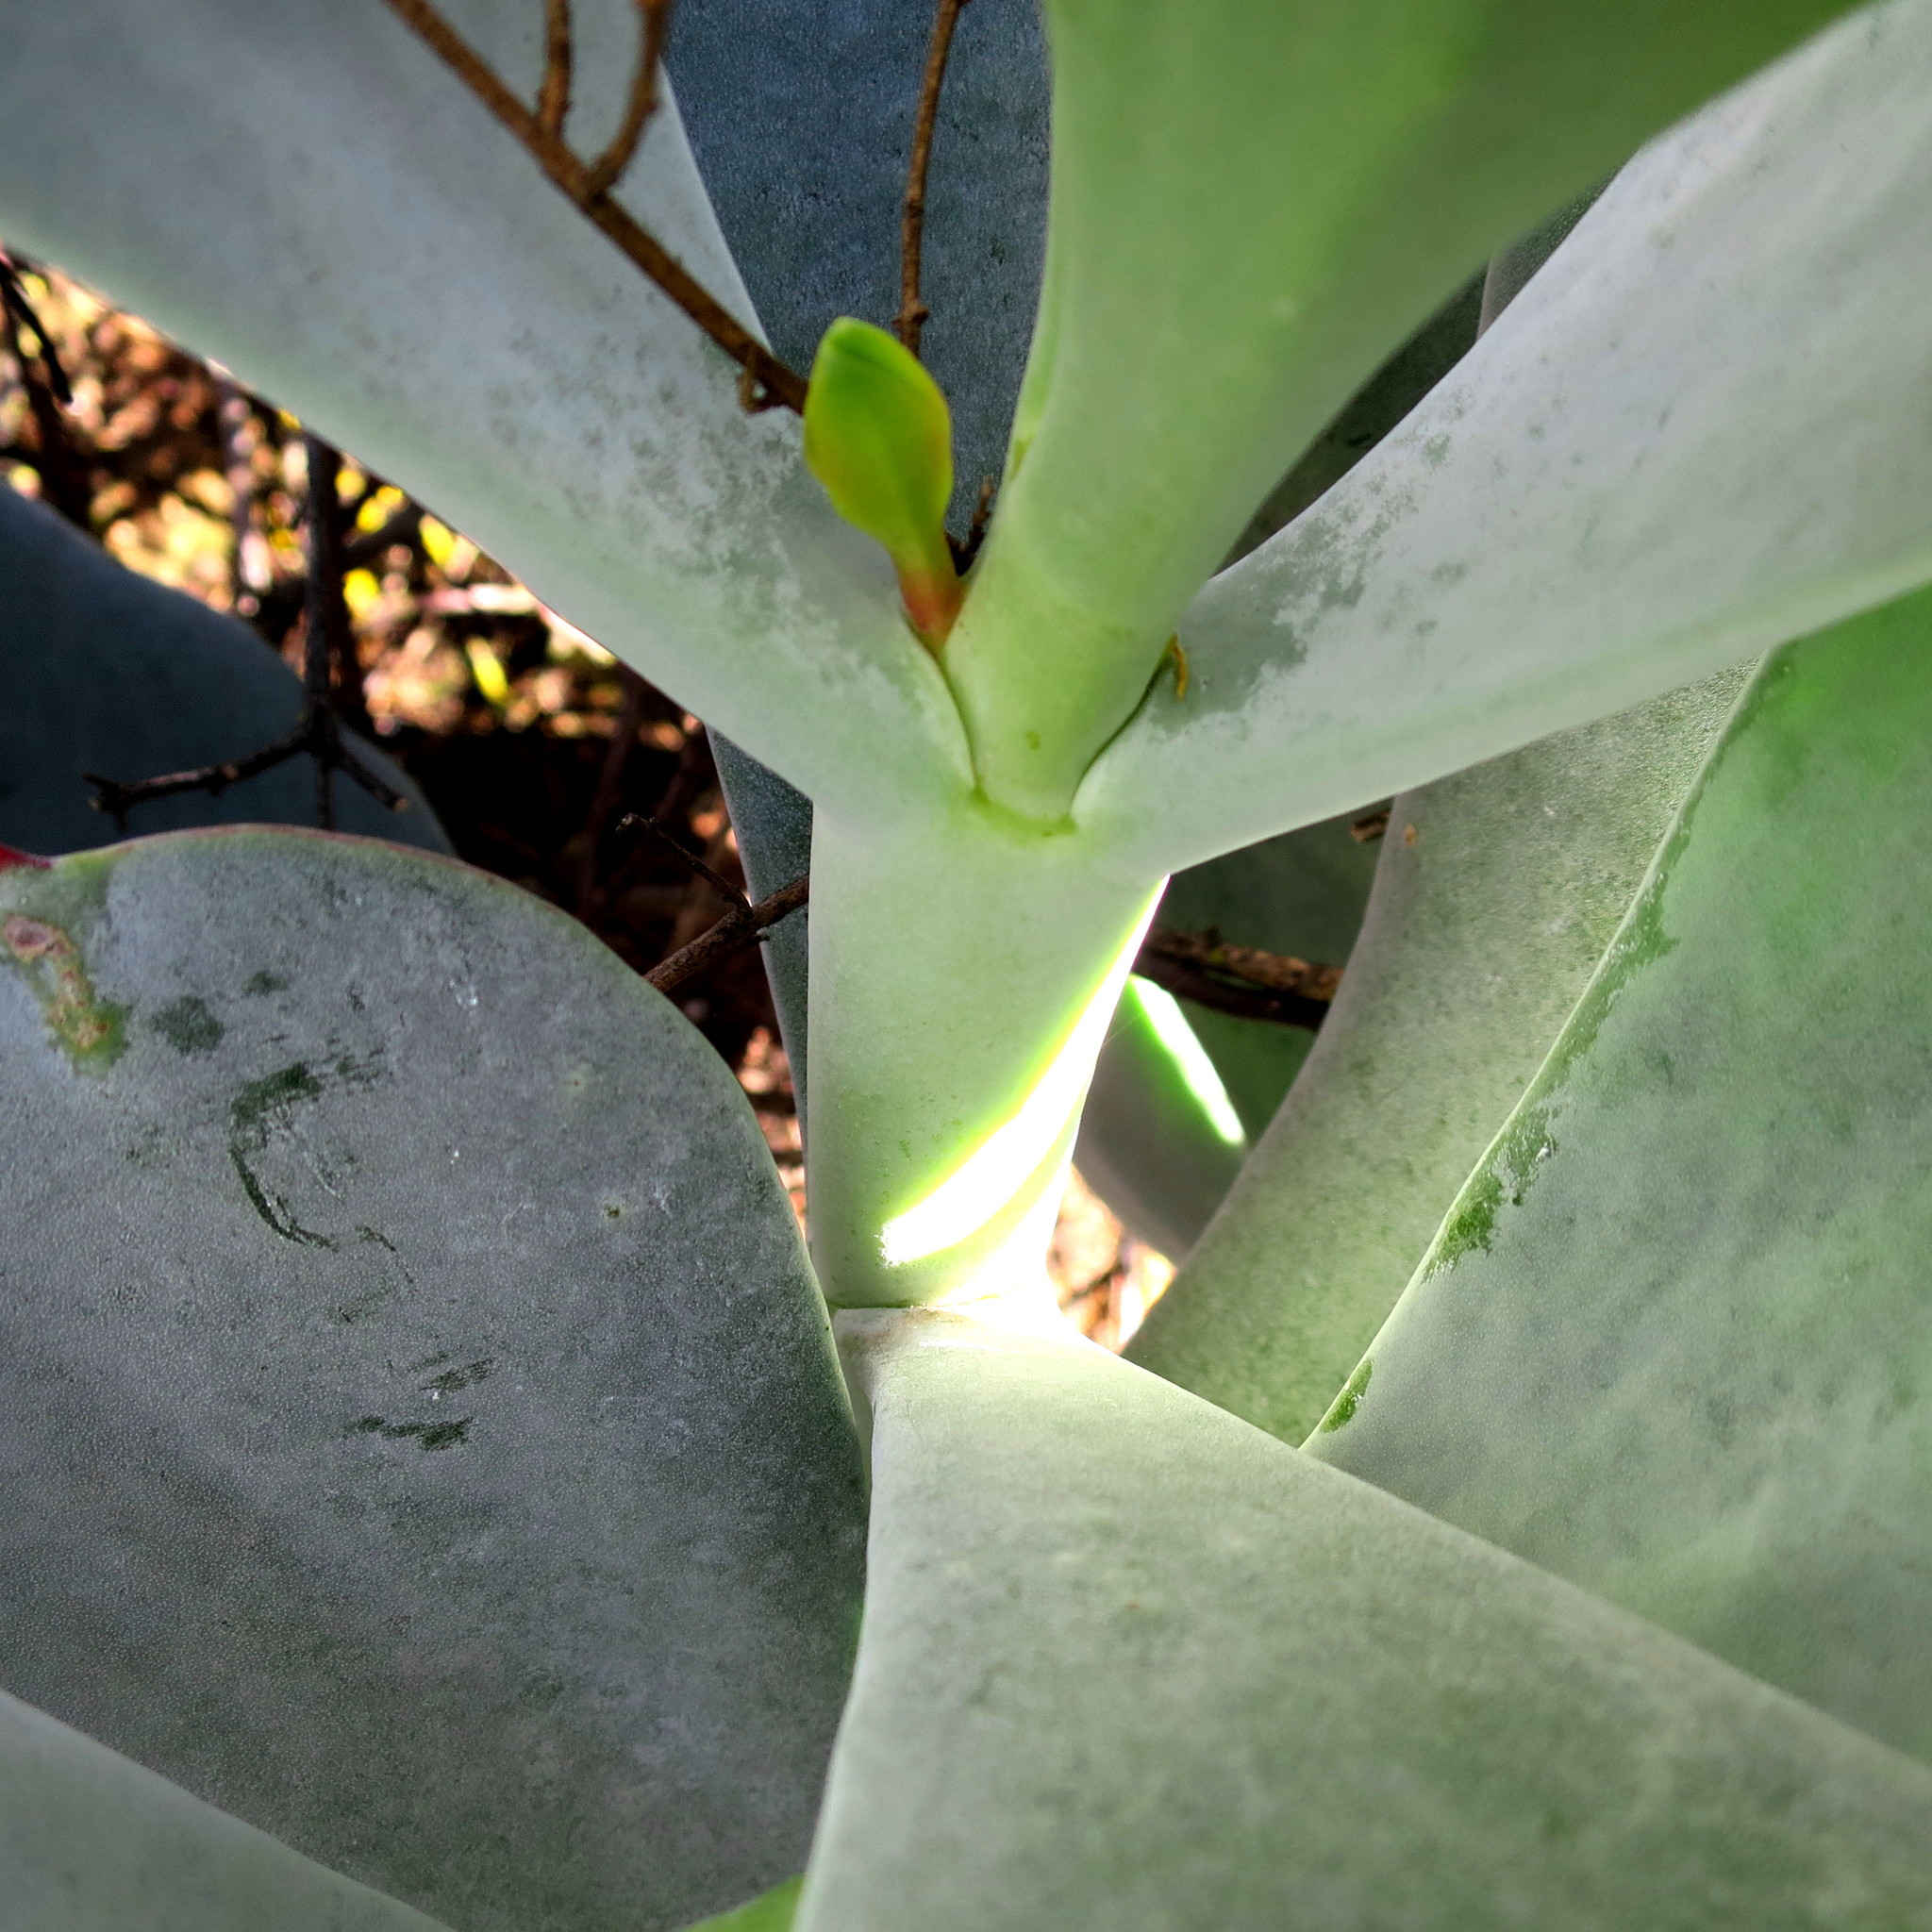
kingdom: Plantae
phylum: Tracheophyta
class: Magnoliopsida
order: Saxifragales
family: Crassulaceae
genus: Cotyledon
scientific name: Cotyledon orbiculata
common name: Pig's ear
